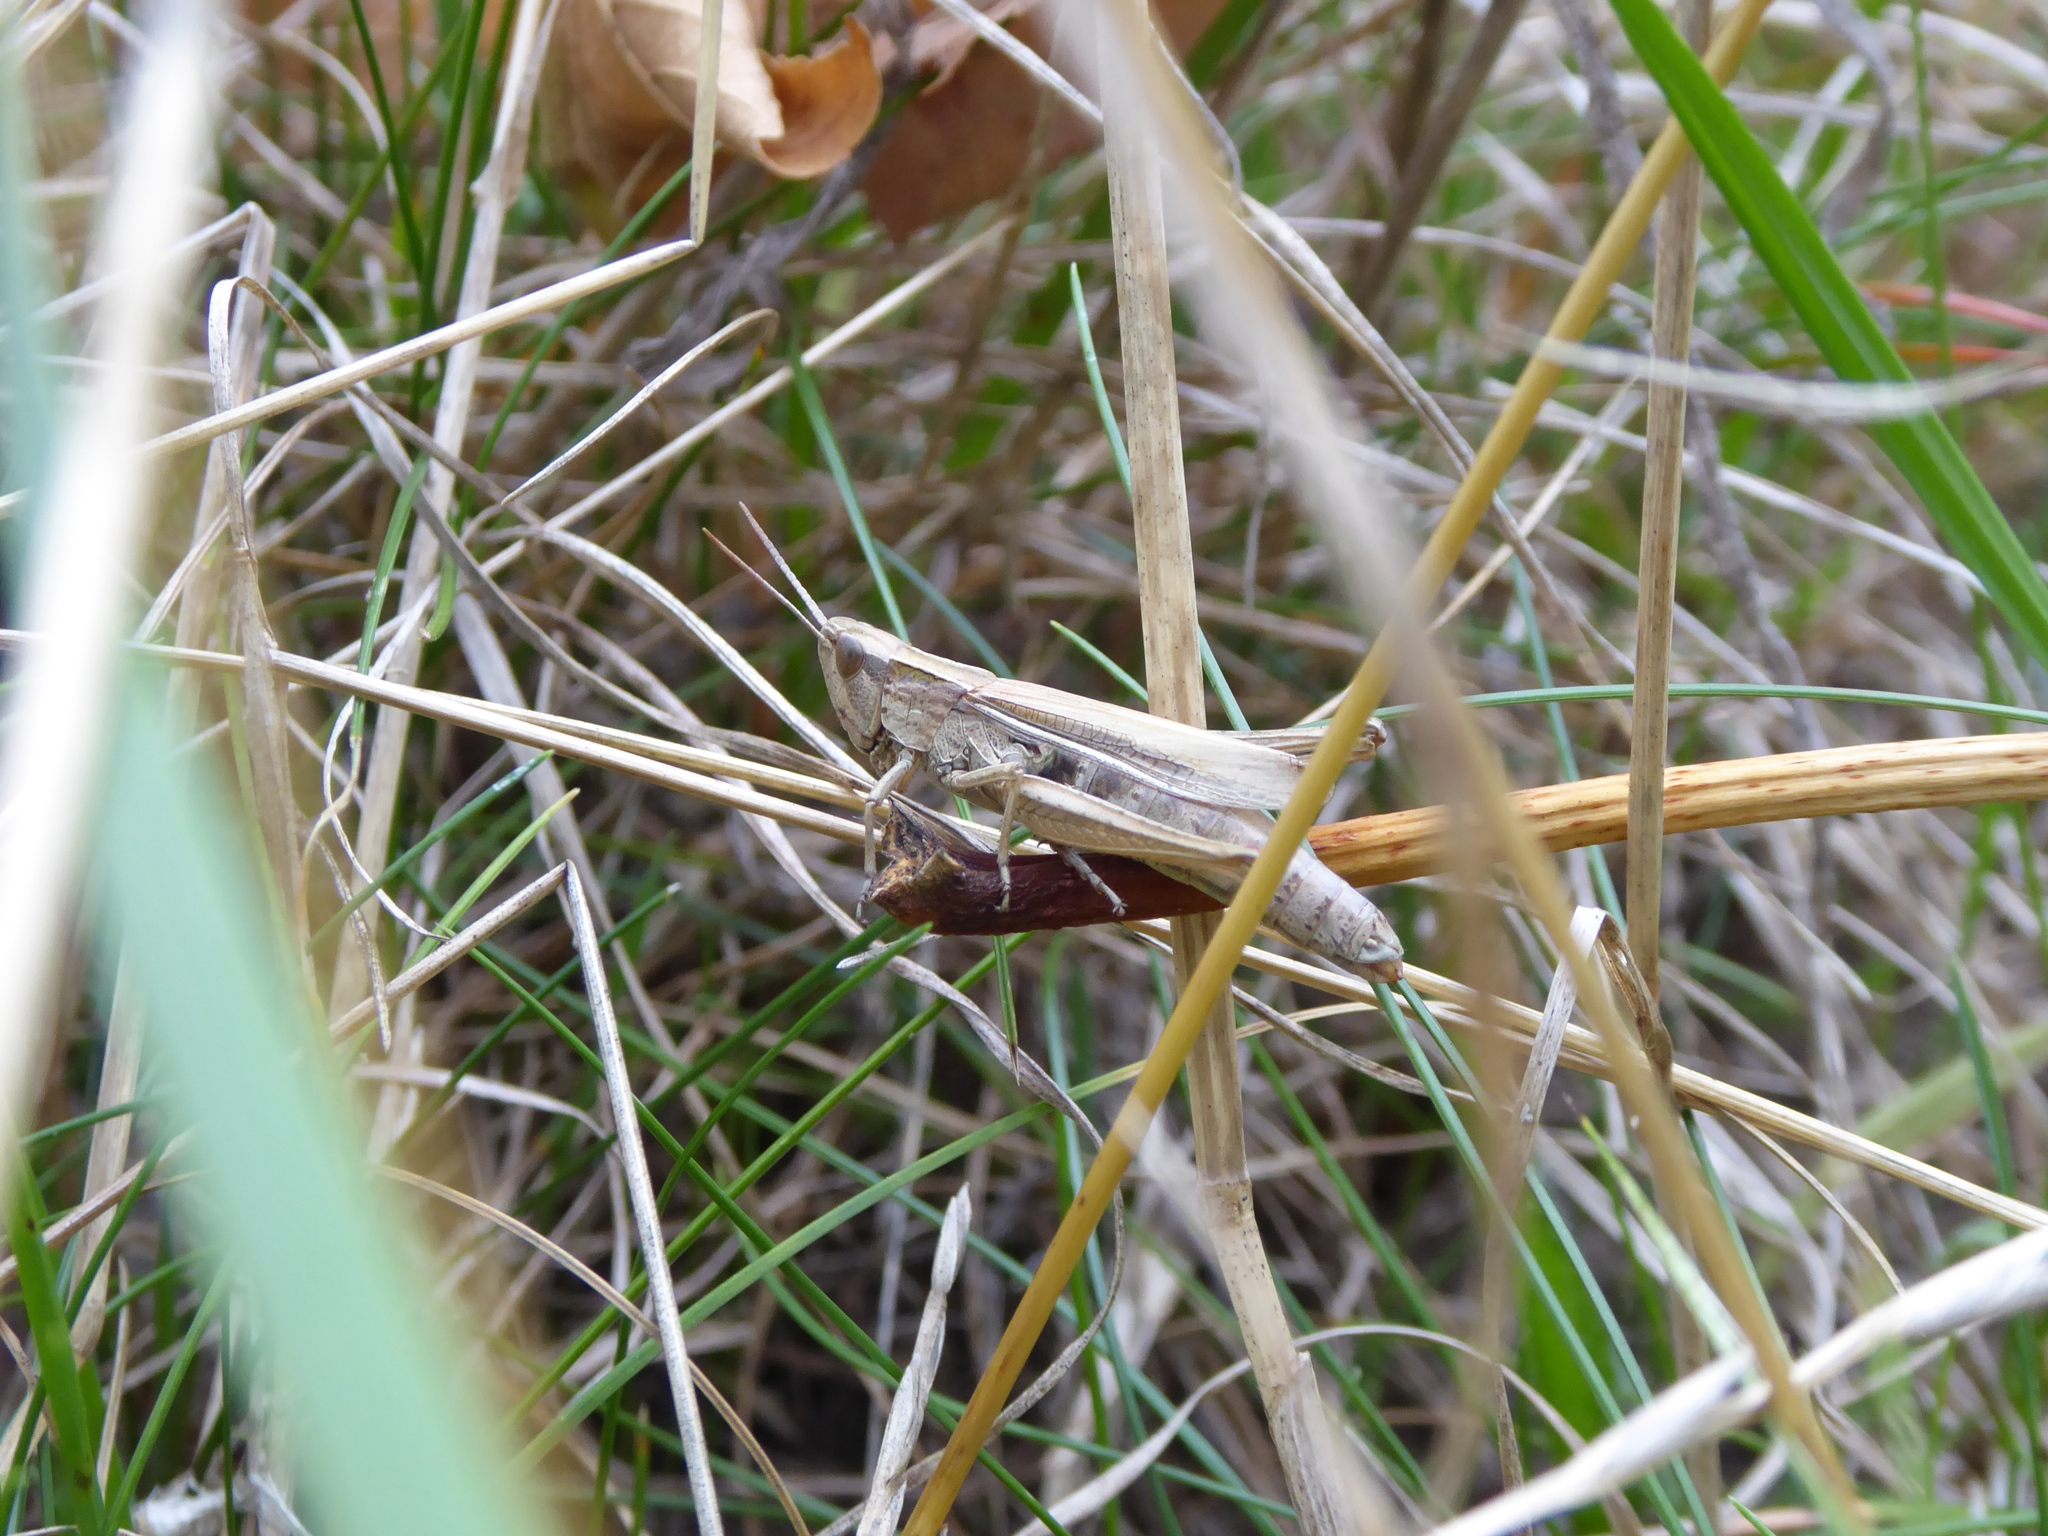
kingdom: Animalia
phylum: Arthropoda
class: Insecta
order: Orthoptera
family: Acrididae
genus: Chorthippus
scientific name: Chorthippus albomarginatus
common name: Lesser marsh grasshopper
